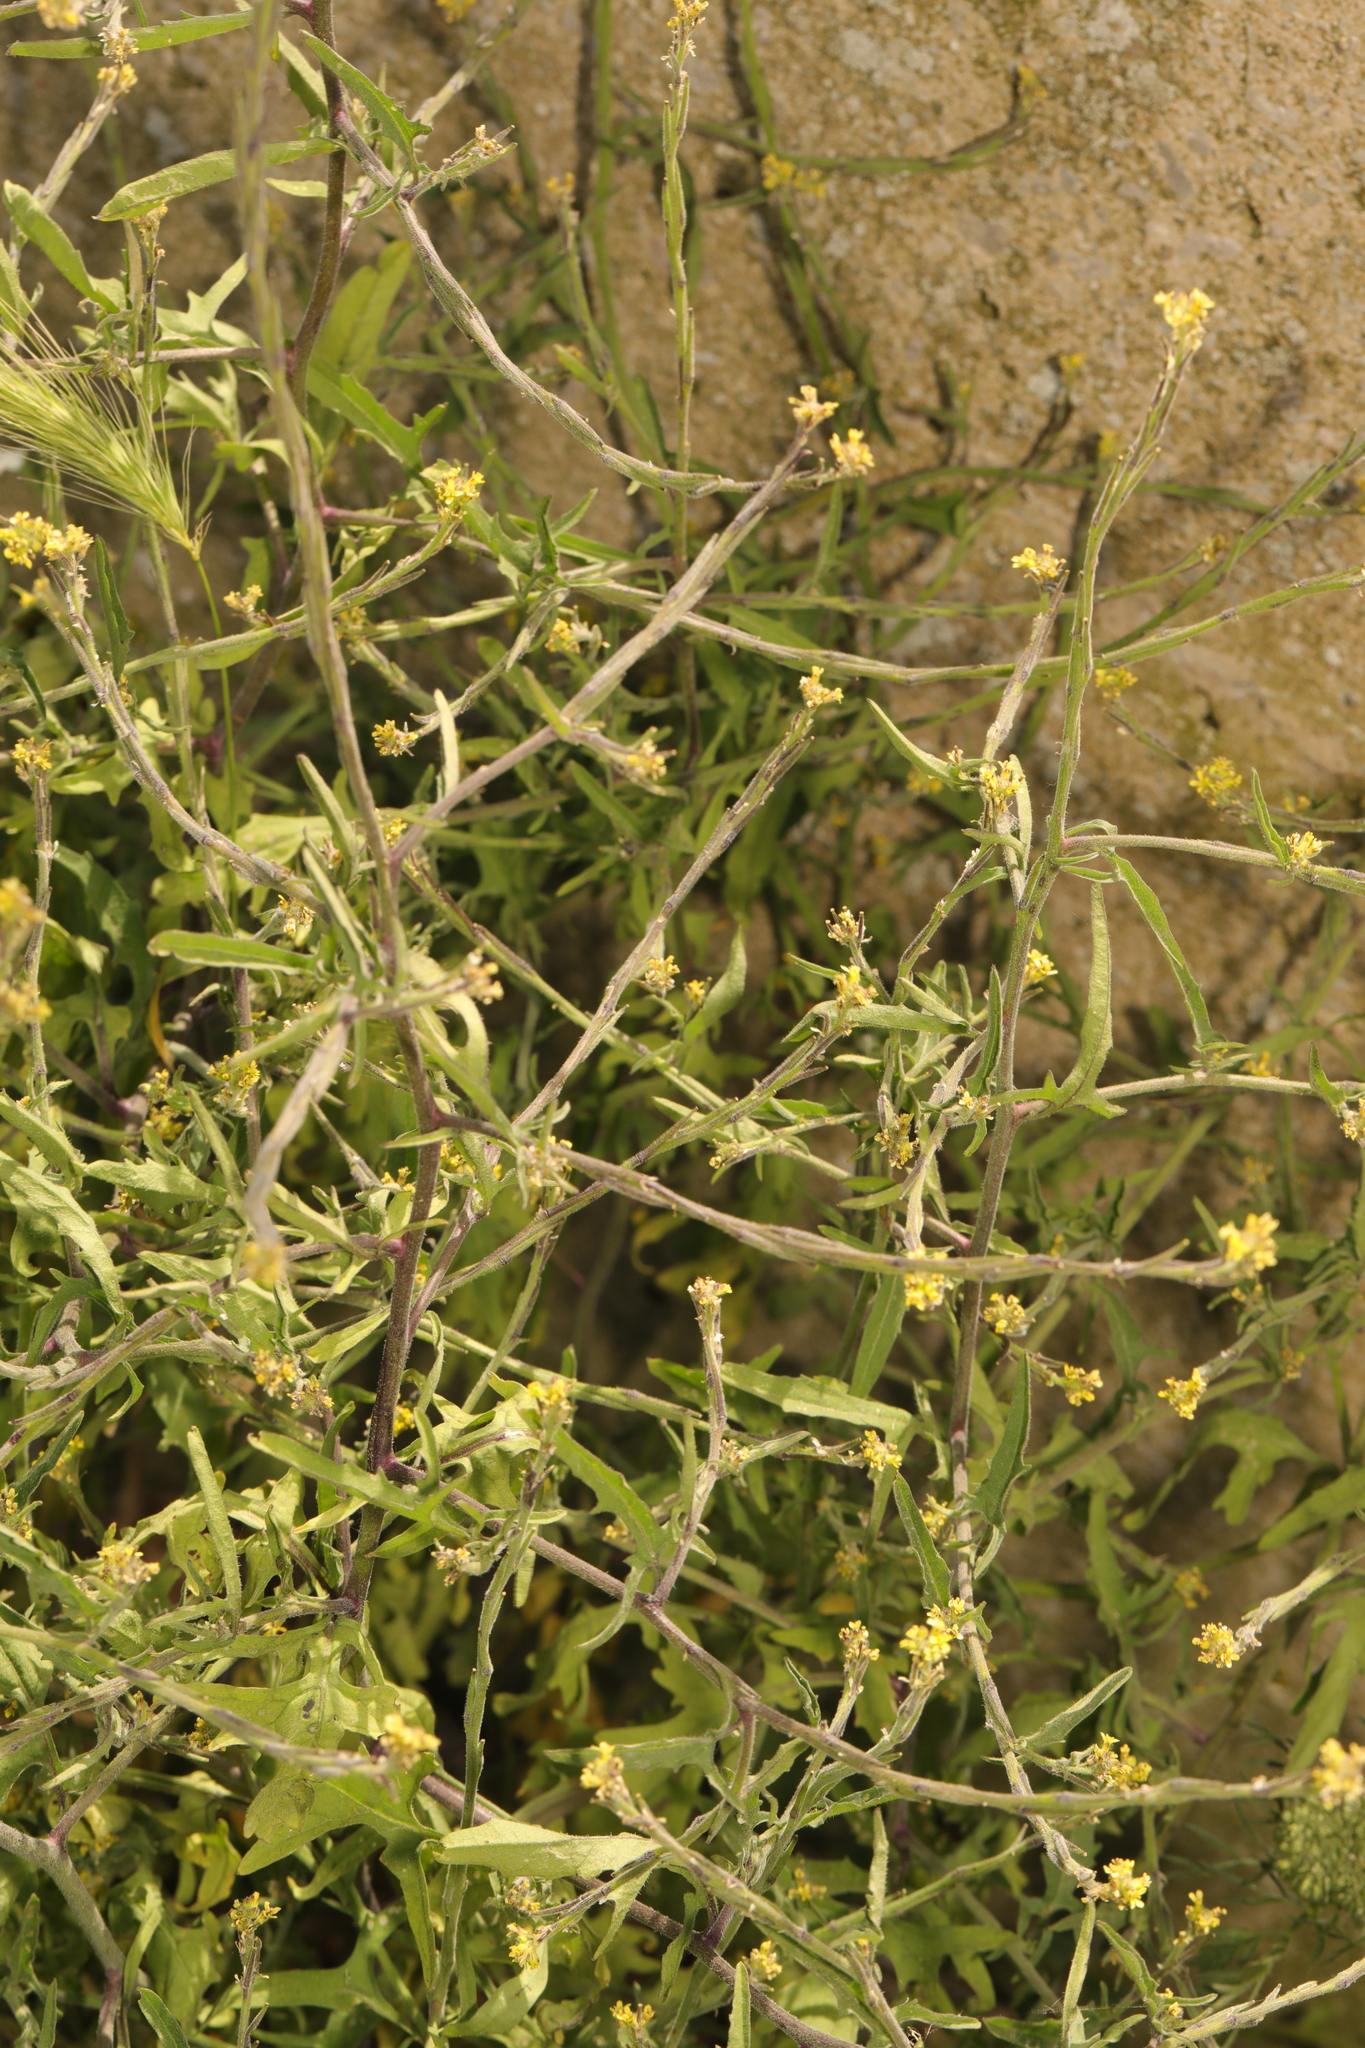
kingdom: Plantae
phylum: Tracheophyta
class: Magnoliopsida
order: Brassicales
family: Brassicaceae
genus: Sisymbrium
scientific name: Sisymbrium officinale
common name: Hedge mustard
